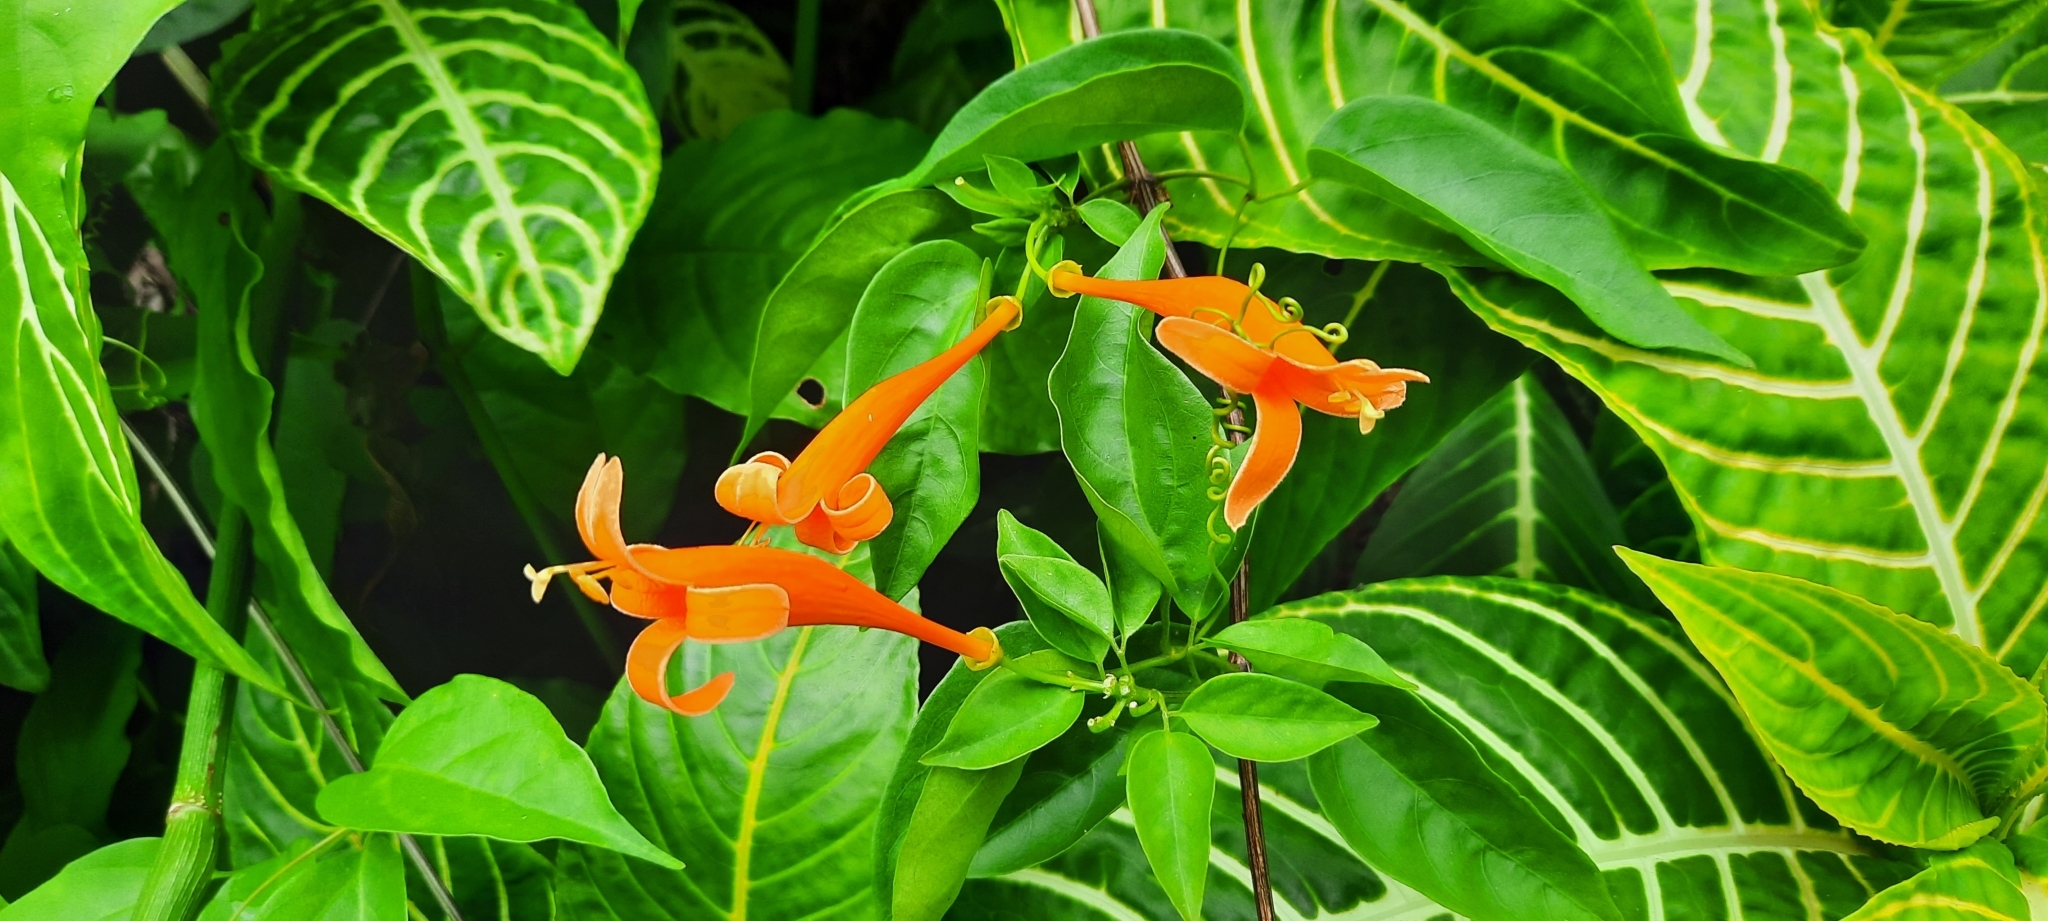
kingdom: Plantae
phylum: Tracheophyta
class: Magnoliopsida
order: Lamiales
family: Bignoniaceae
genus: Pyrostegia
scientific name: Pyrostegia venusta
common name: Flamevine
